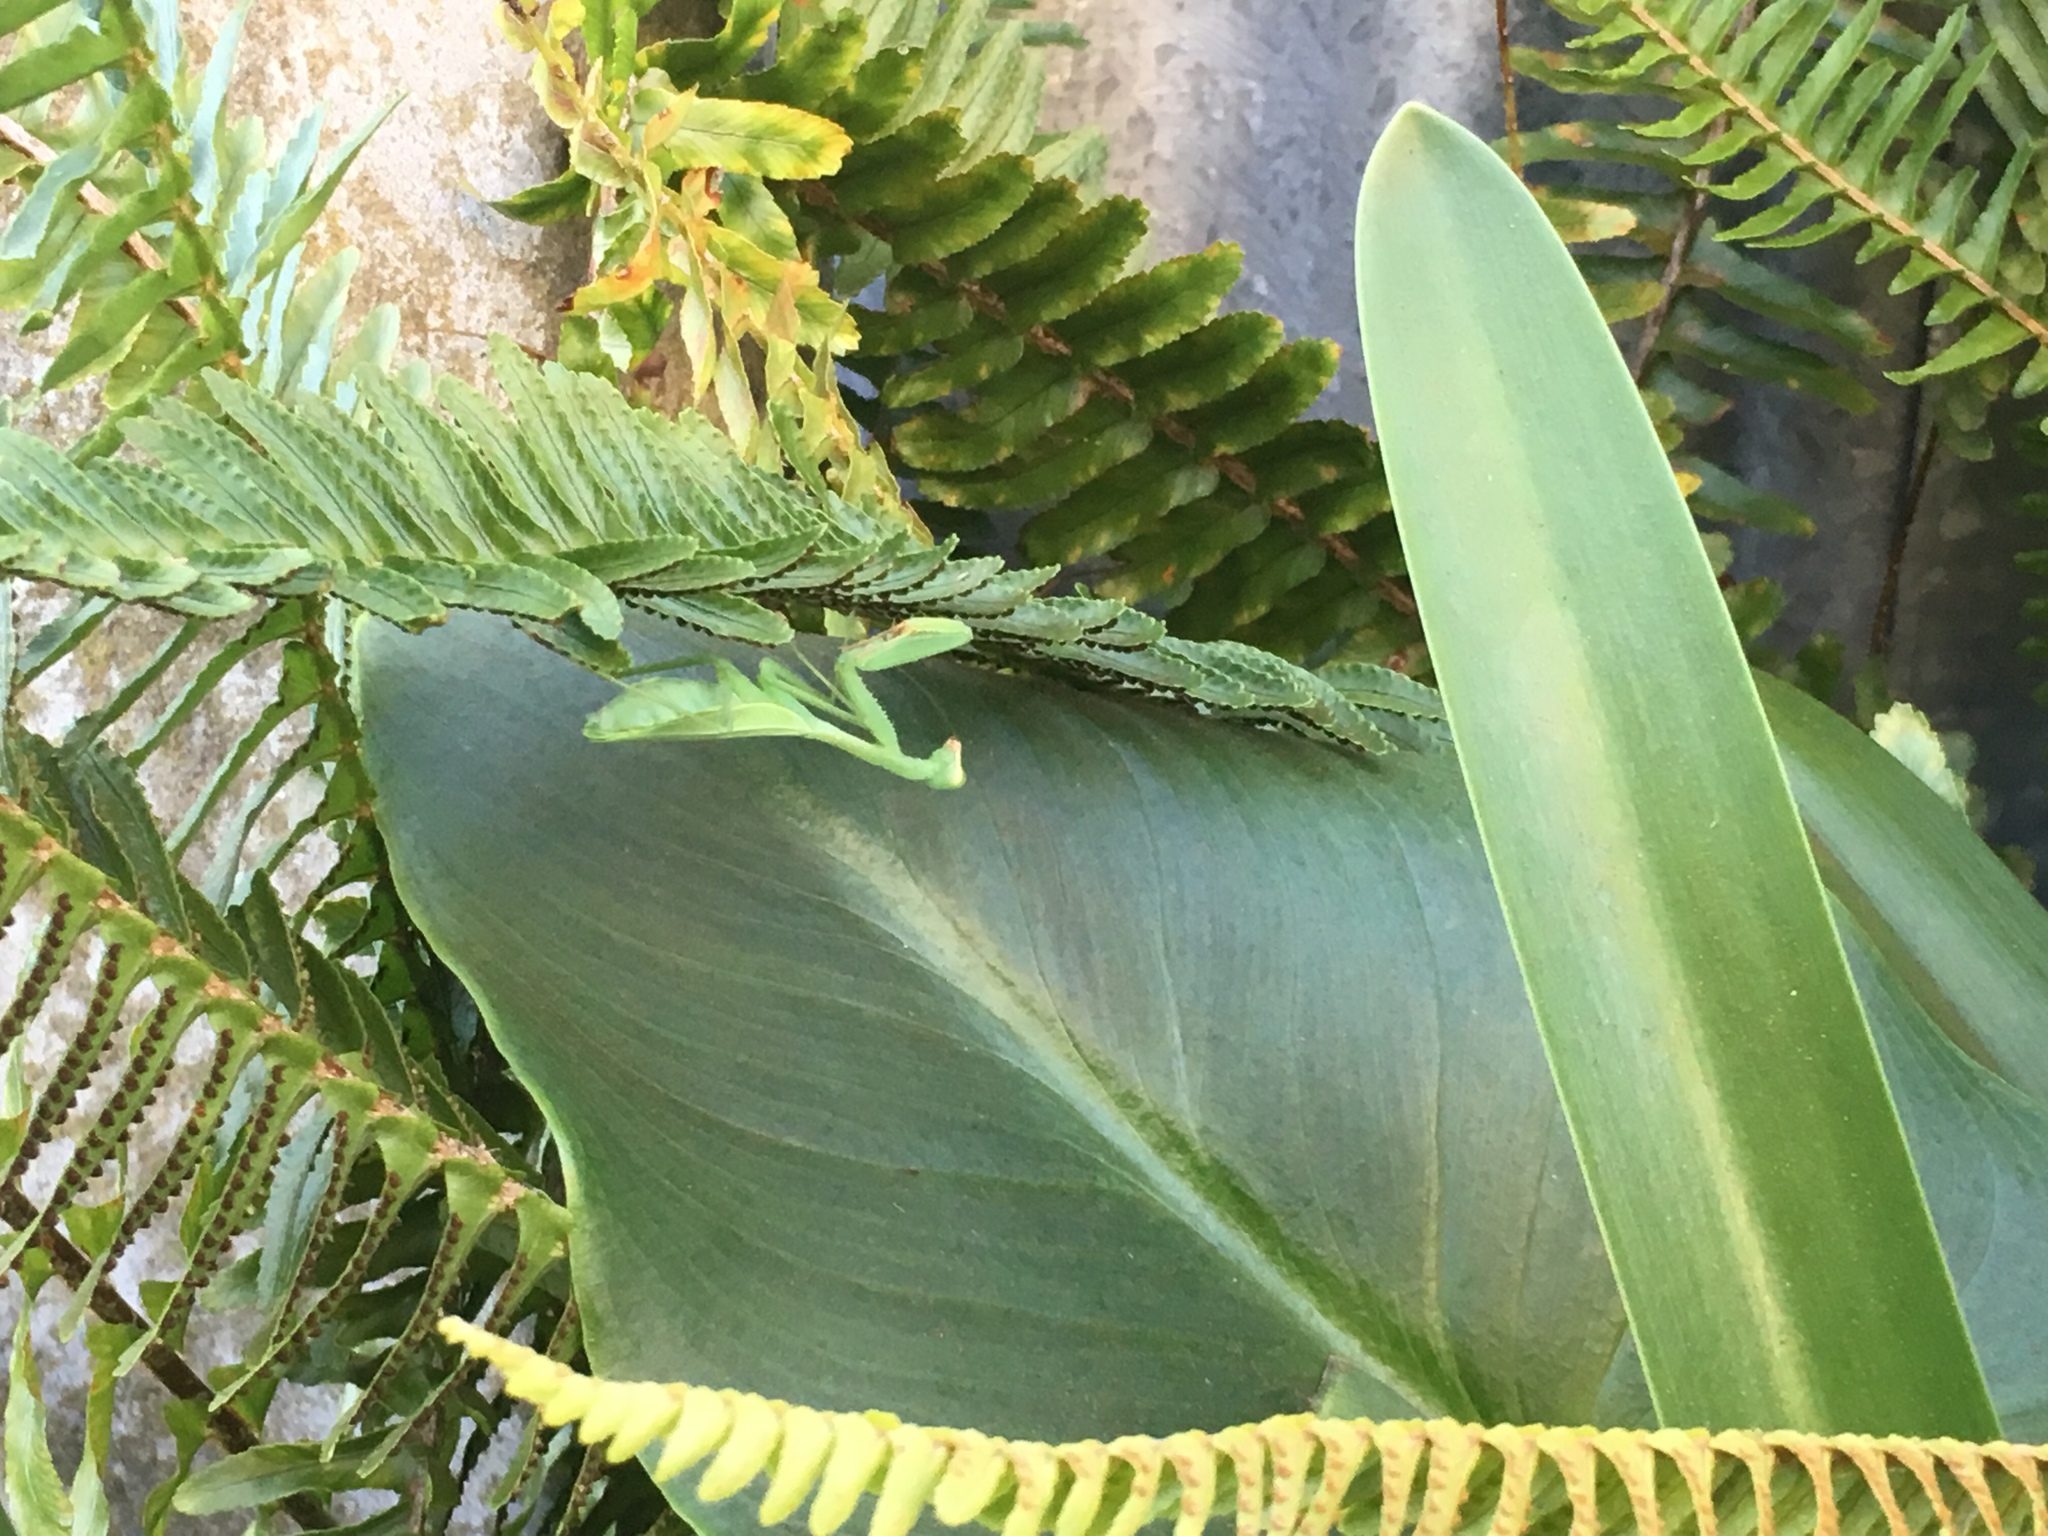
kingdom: Animalia
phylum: Arthropoda
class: Insecta
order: Mantodea
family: Miomantidae
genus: Miomantis
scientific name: Miomantis caffra
